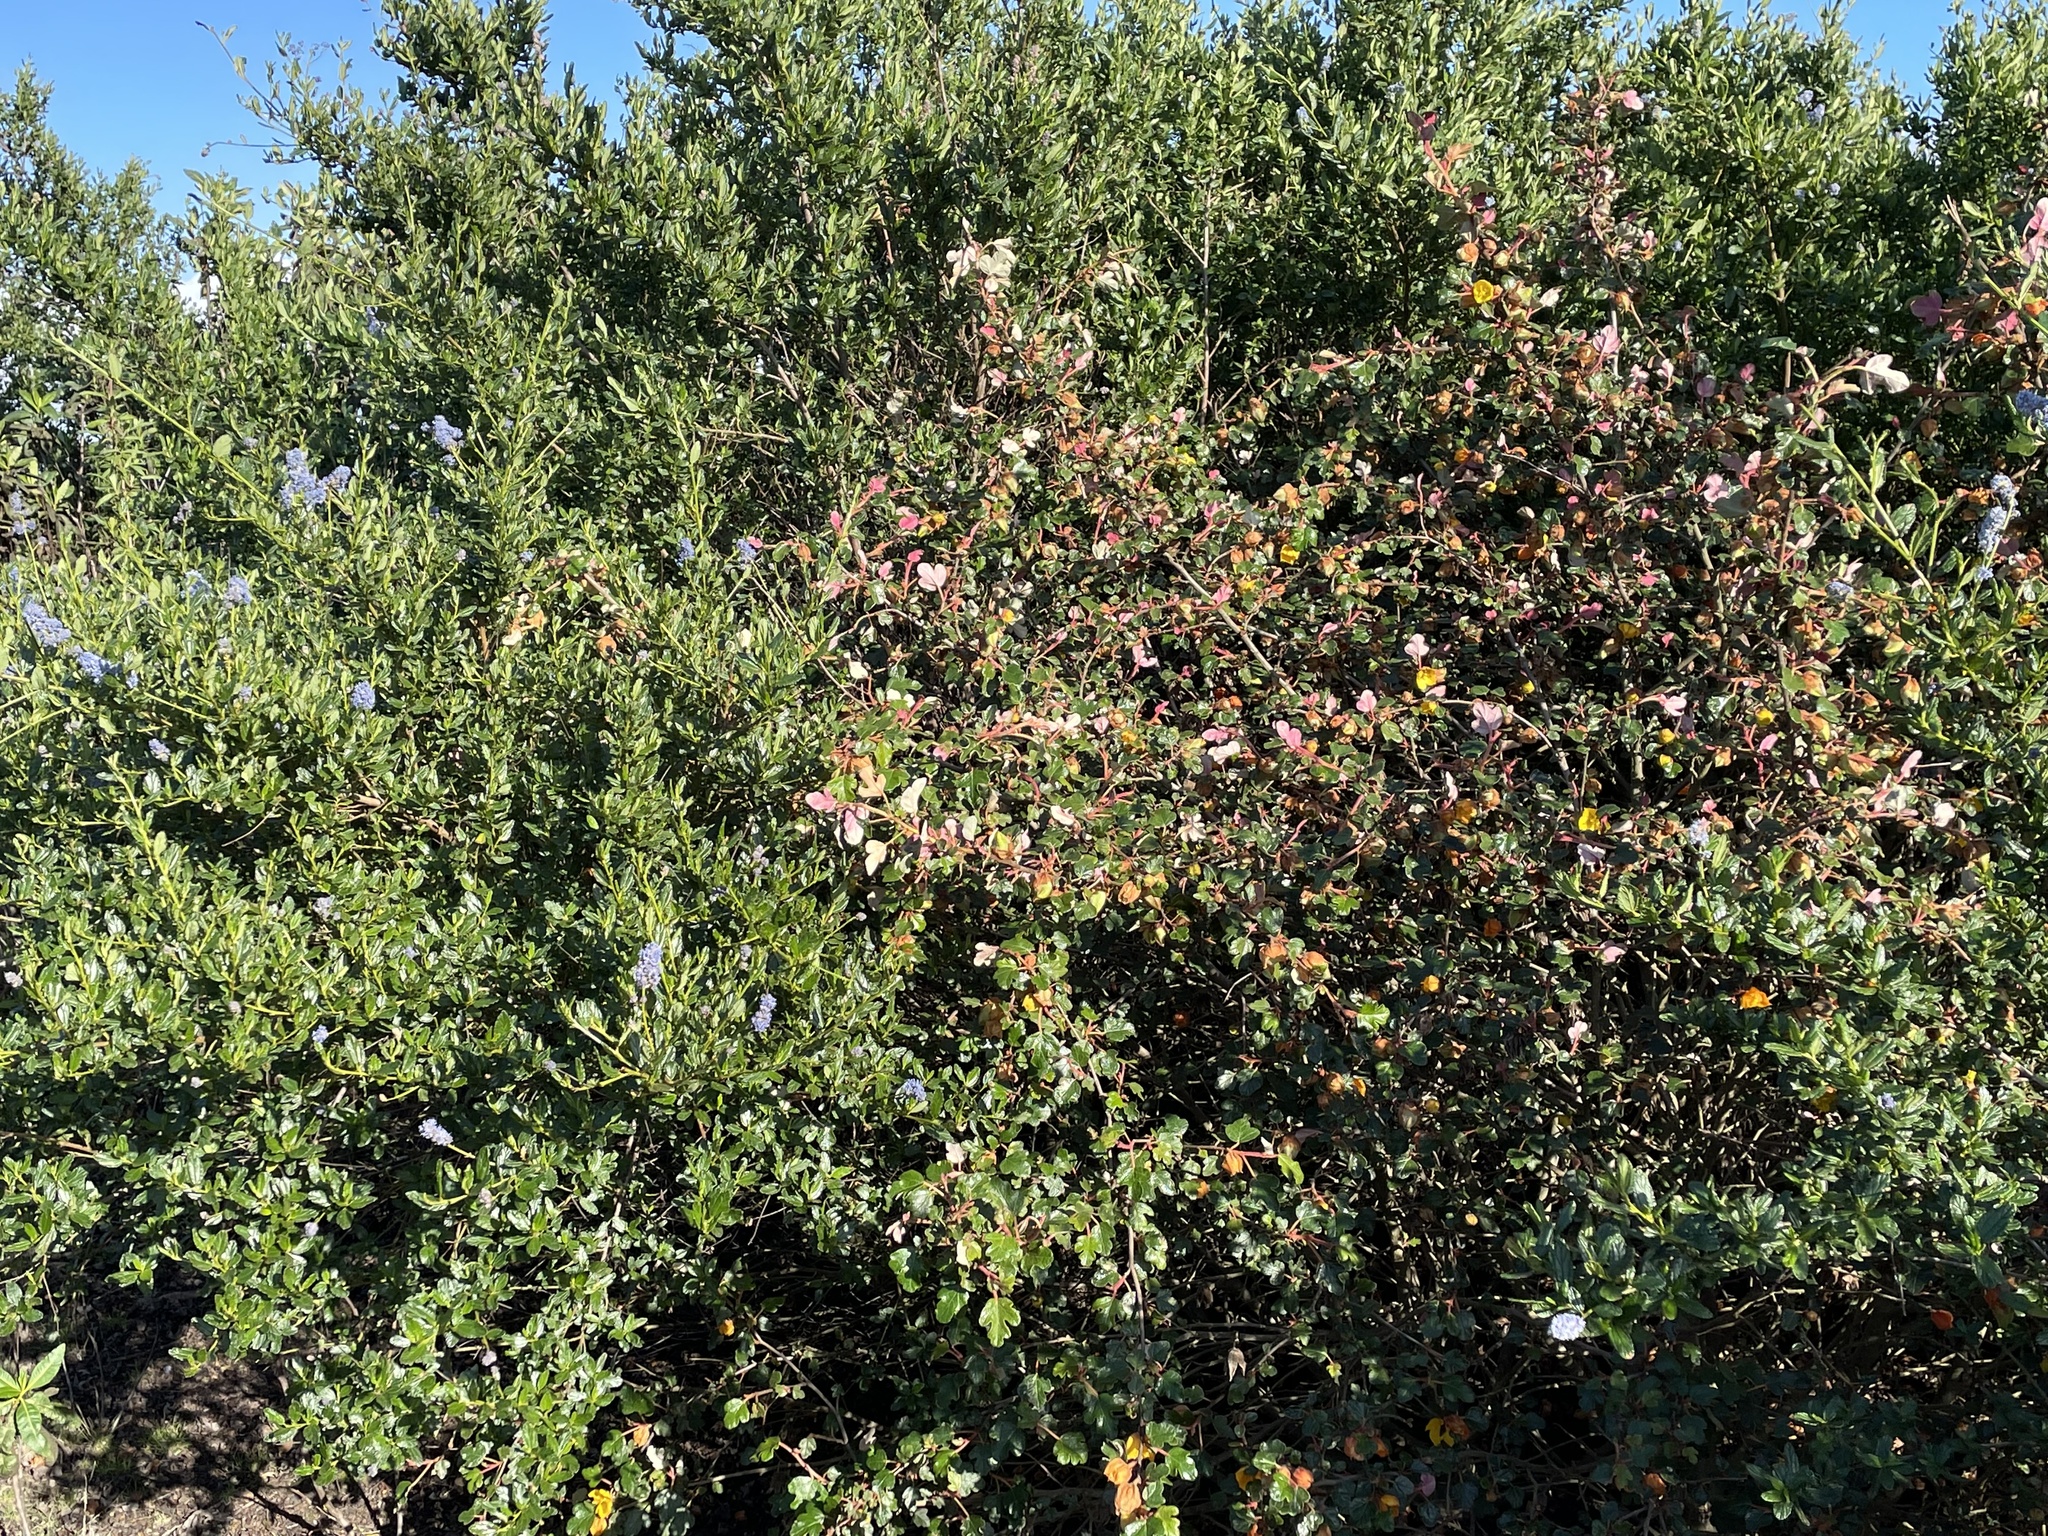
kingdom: Plantae
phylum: Tracheophyta
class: Magnoliopsida
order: Rosales
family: Rhamnaceae
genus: Ceanothus
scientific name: Ceanothus thyrsiflorus
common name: California-lilac
